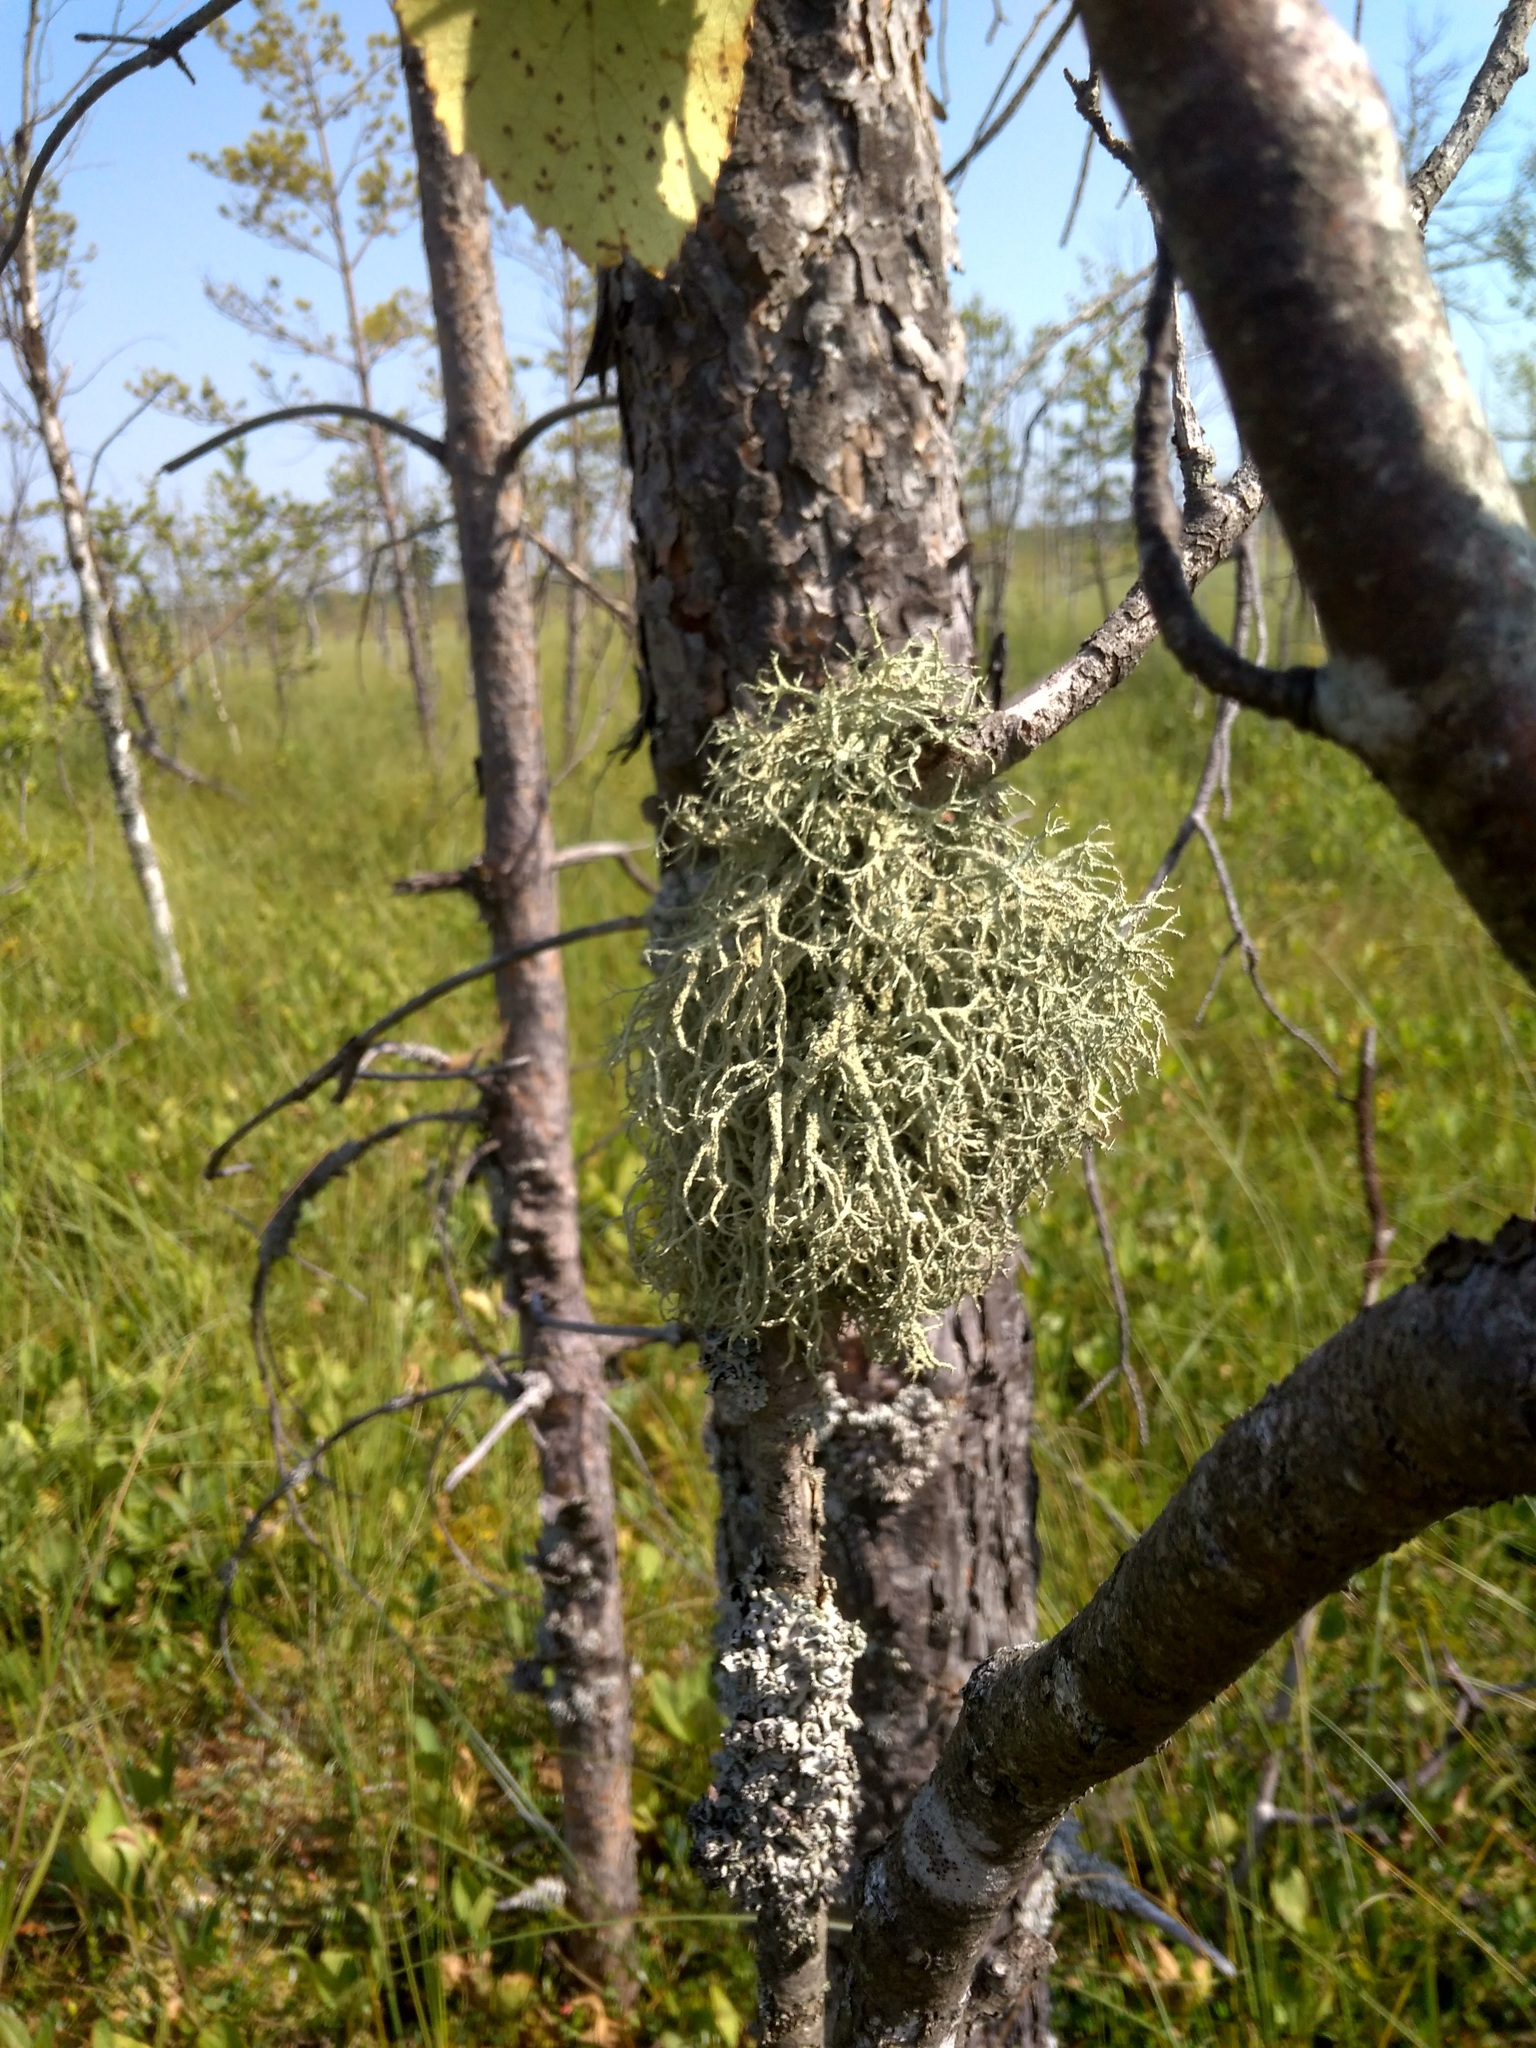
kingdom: Fungi
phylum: Ascomycota
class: Lecanoromycetes
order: Lecanorales
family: Parmeliaceae
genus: Evernia
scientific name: Evernia mesomorpha
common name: Boreal oak moss lichen
